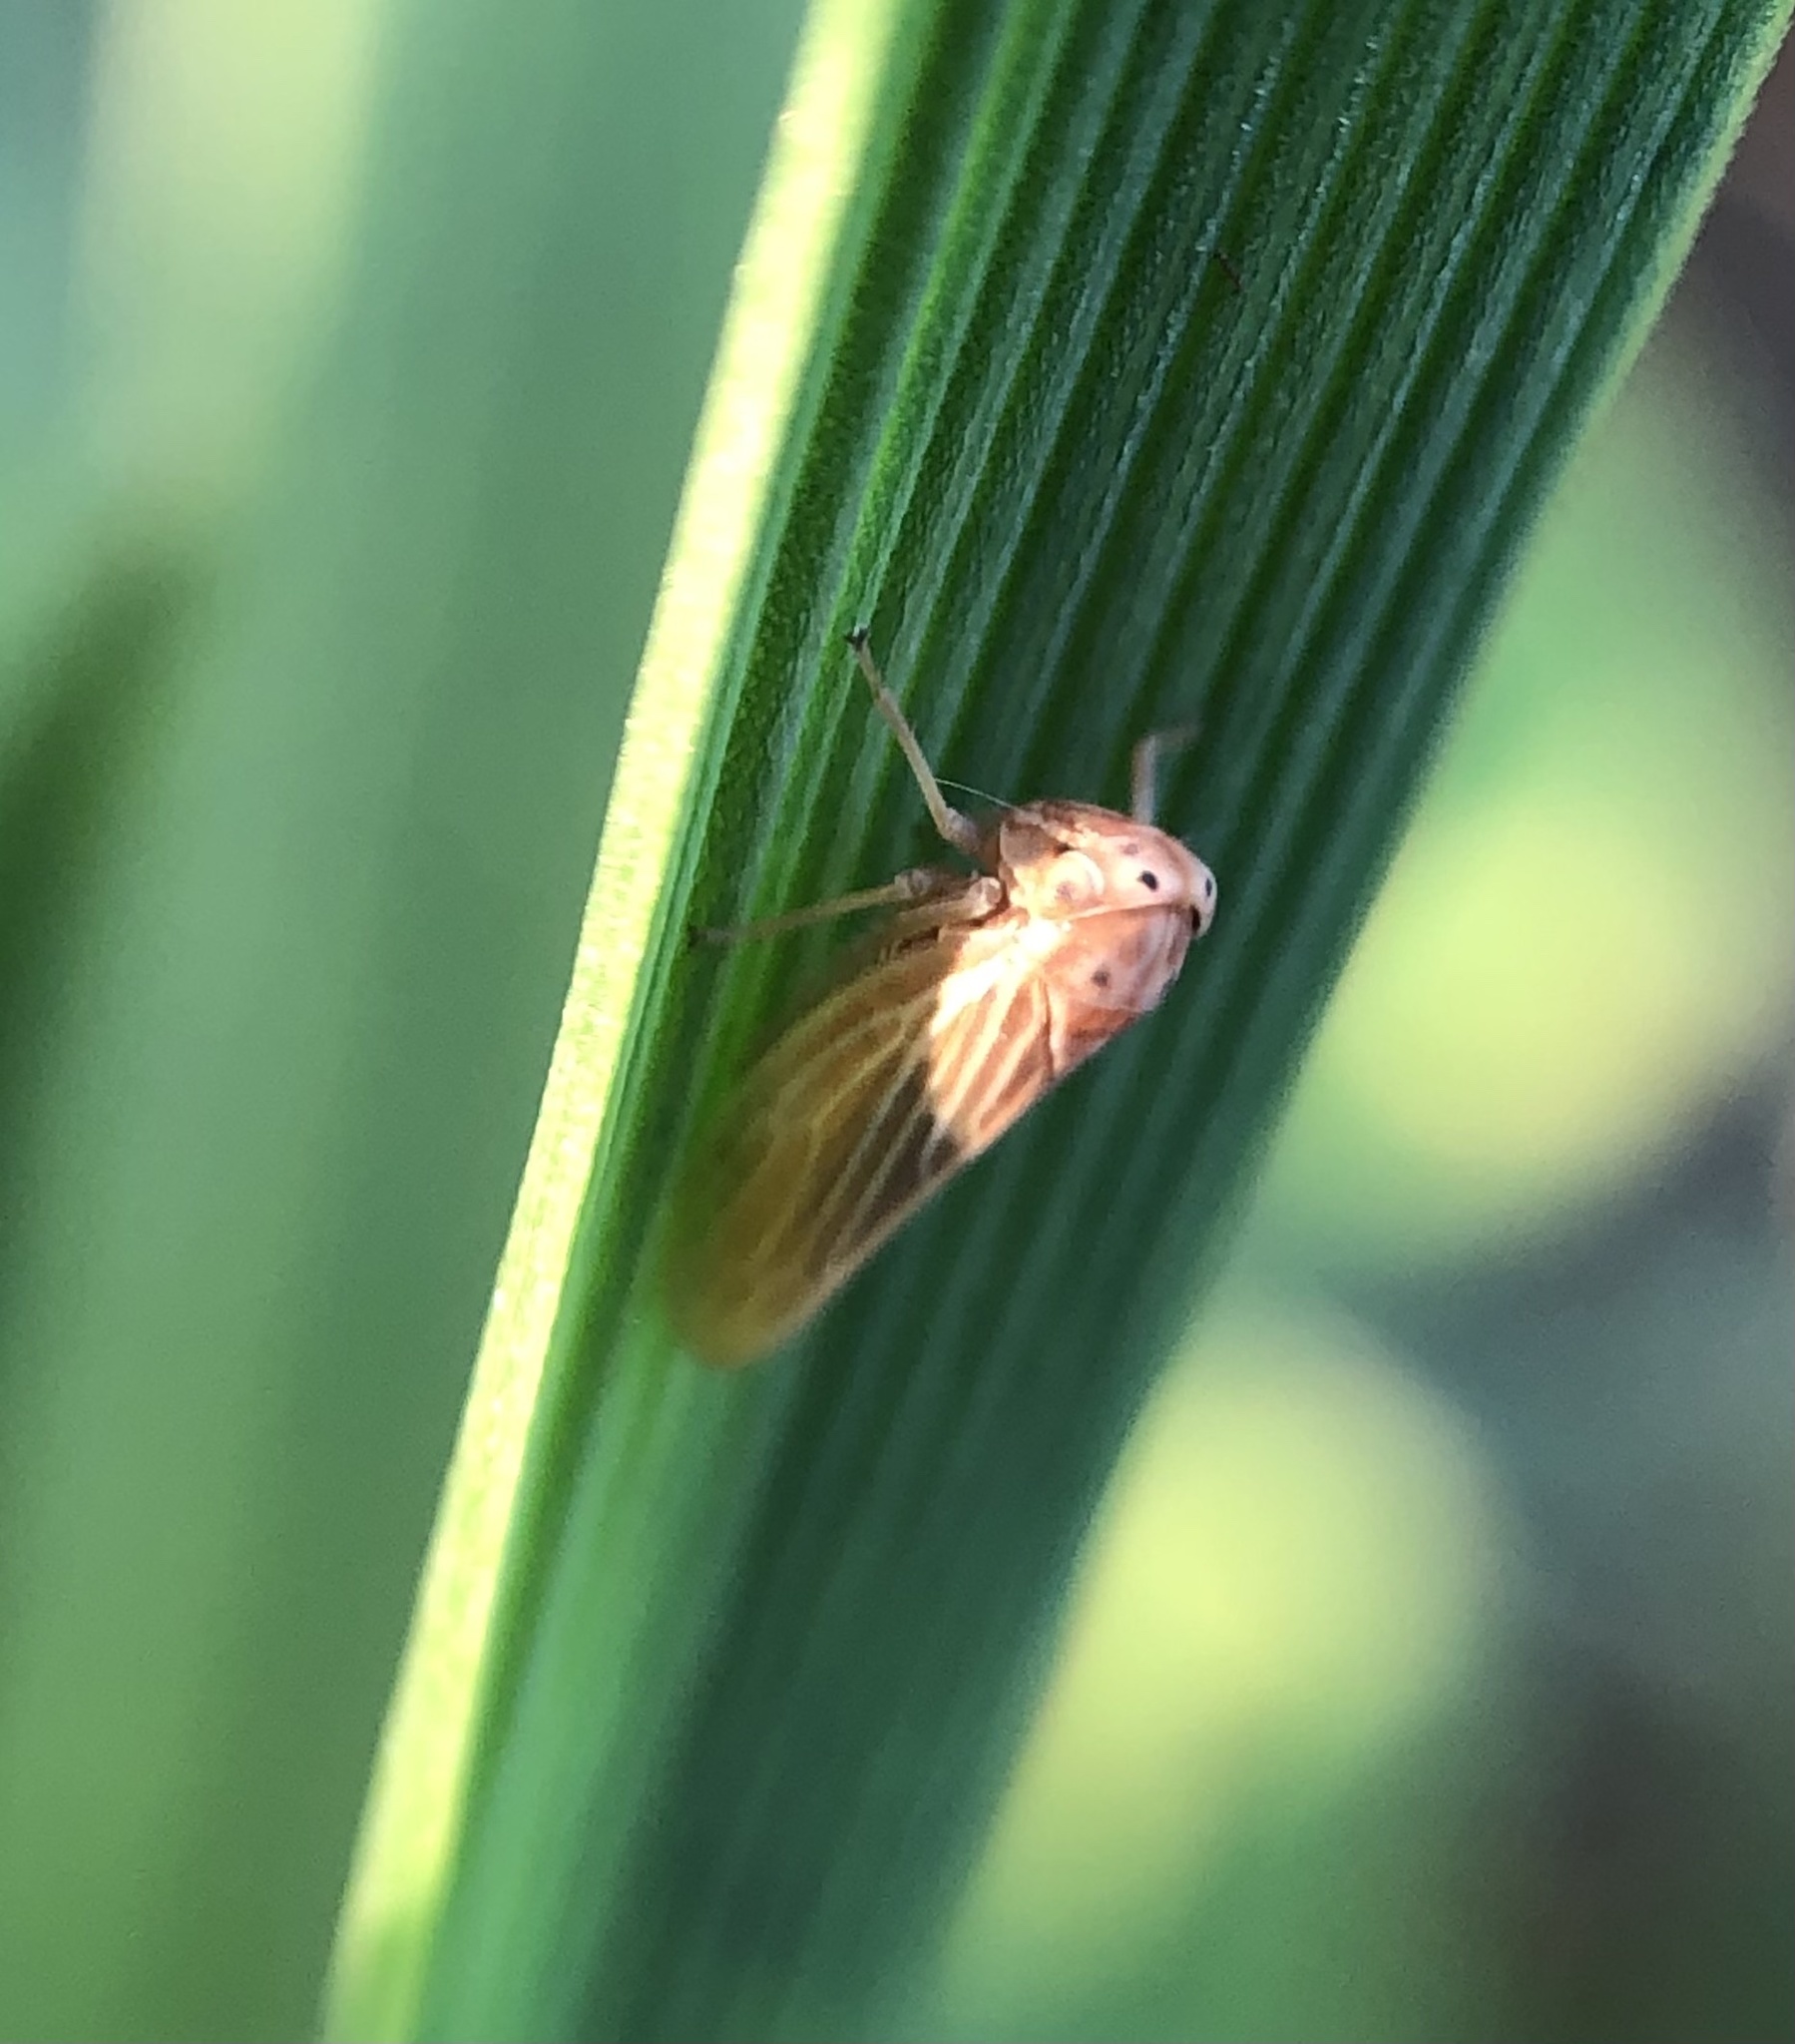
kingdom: Animalia
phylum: Arthropoda
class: Insecta
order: Hemiptera
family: Cicadellidae
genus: Agallia
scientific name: Agallia constricta
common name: The constricted leafhopper
